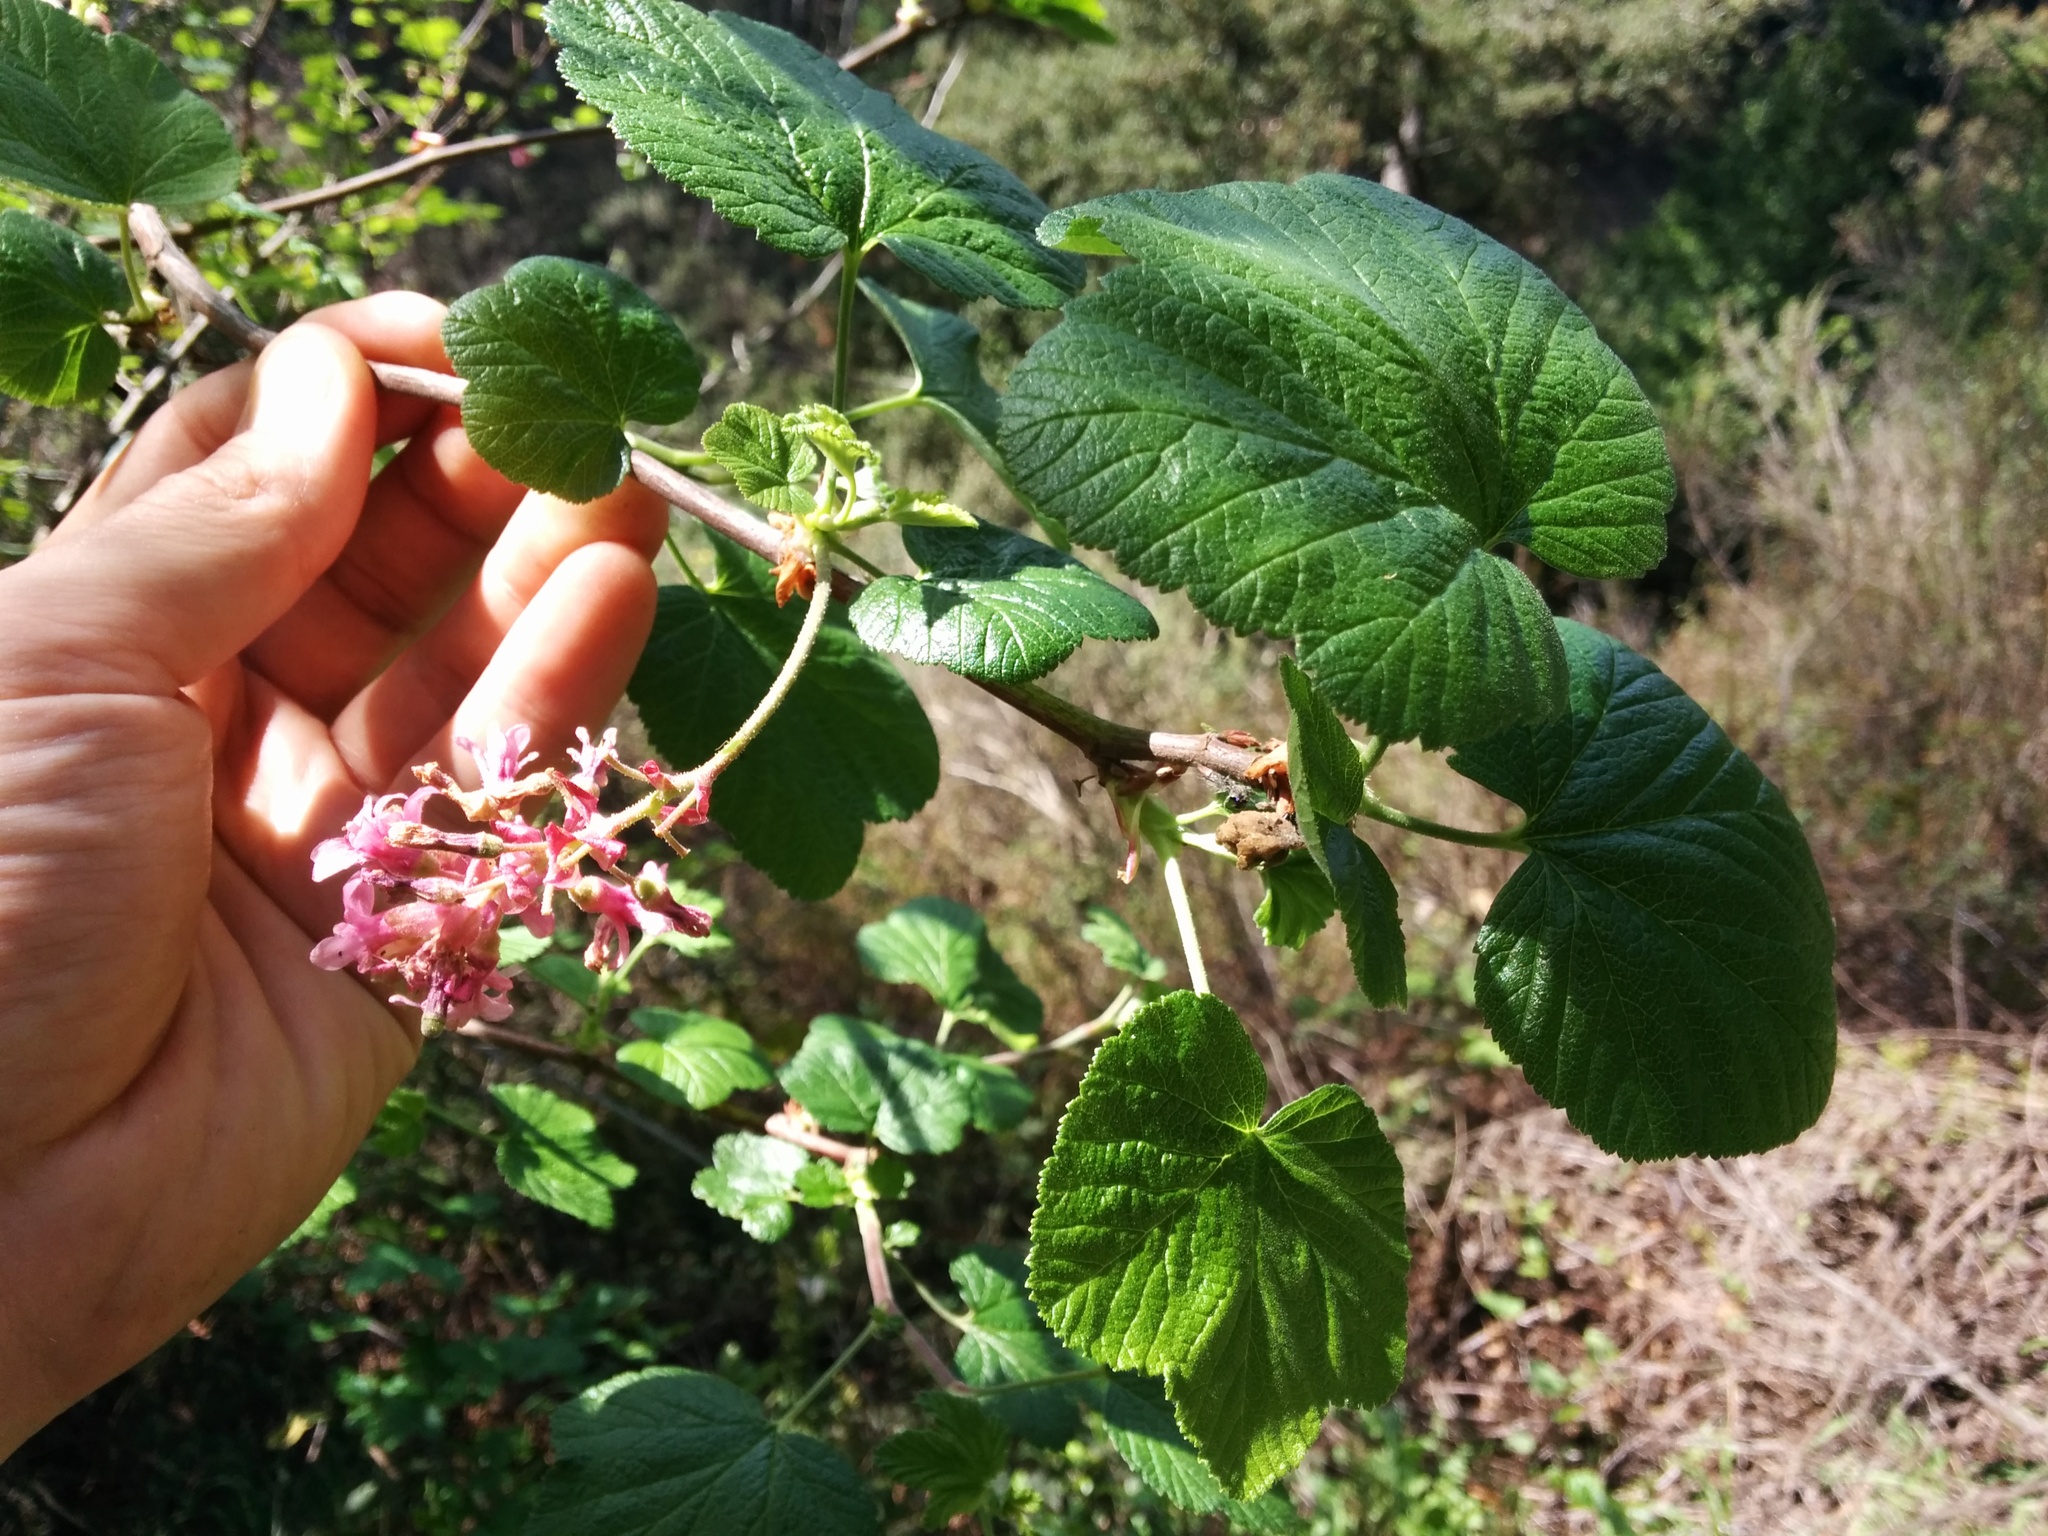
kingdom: Plantae
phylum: Tracheophyta
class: Magnoliopsida
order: Saxifragales
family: Grossulariaceae
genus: Ribes
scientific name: Ribes sanguineum
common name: Flowering currant
